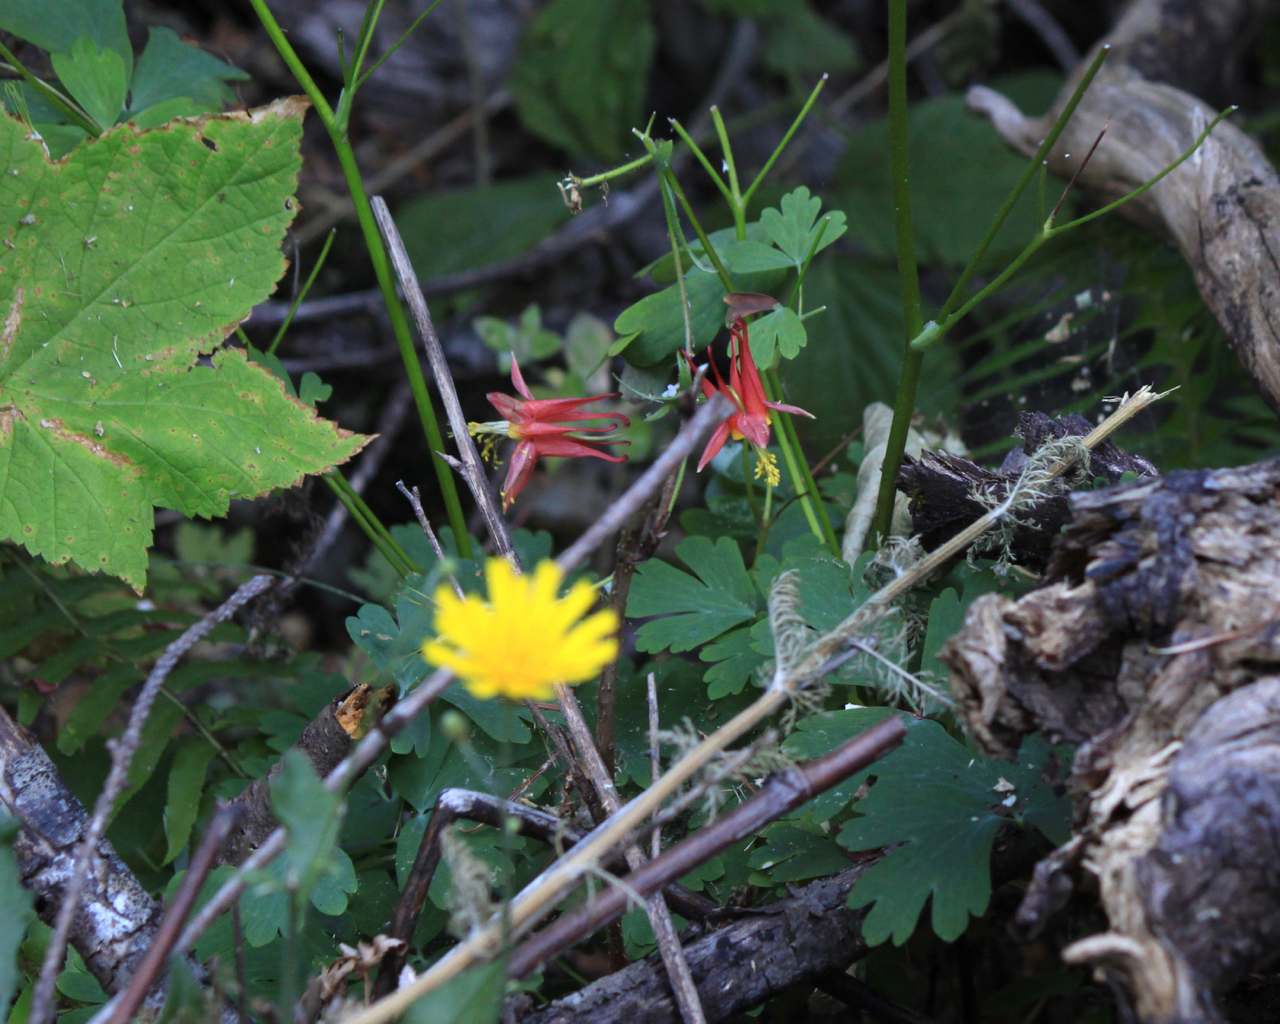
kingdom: Plantae
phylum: Tracheophyta
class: Magnoliopsida
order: Ranunculales
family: Ranunculaceae
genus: Aquilegia
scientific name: Aquilegia formosa
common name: Sitka columbine
